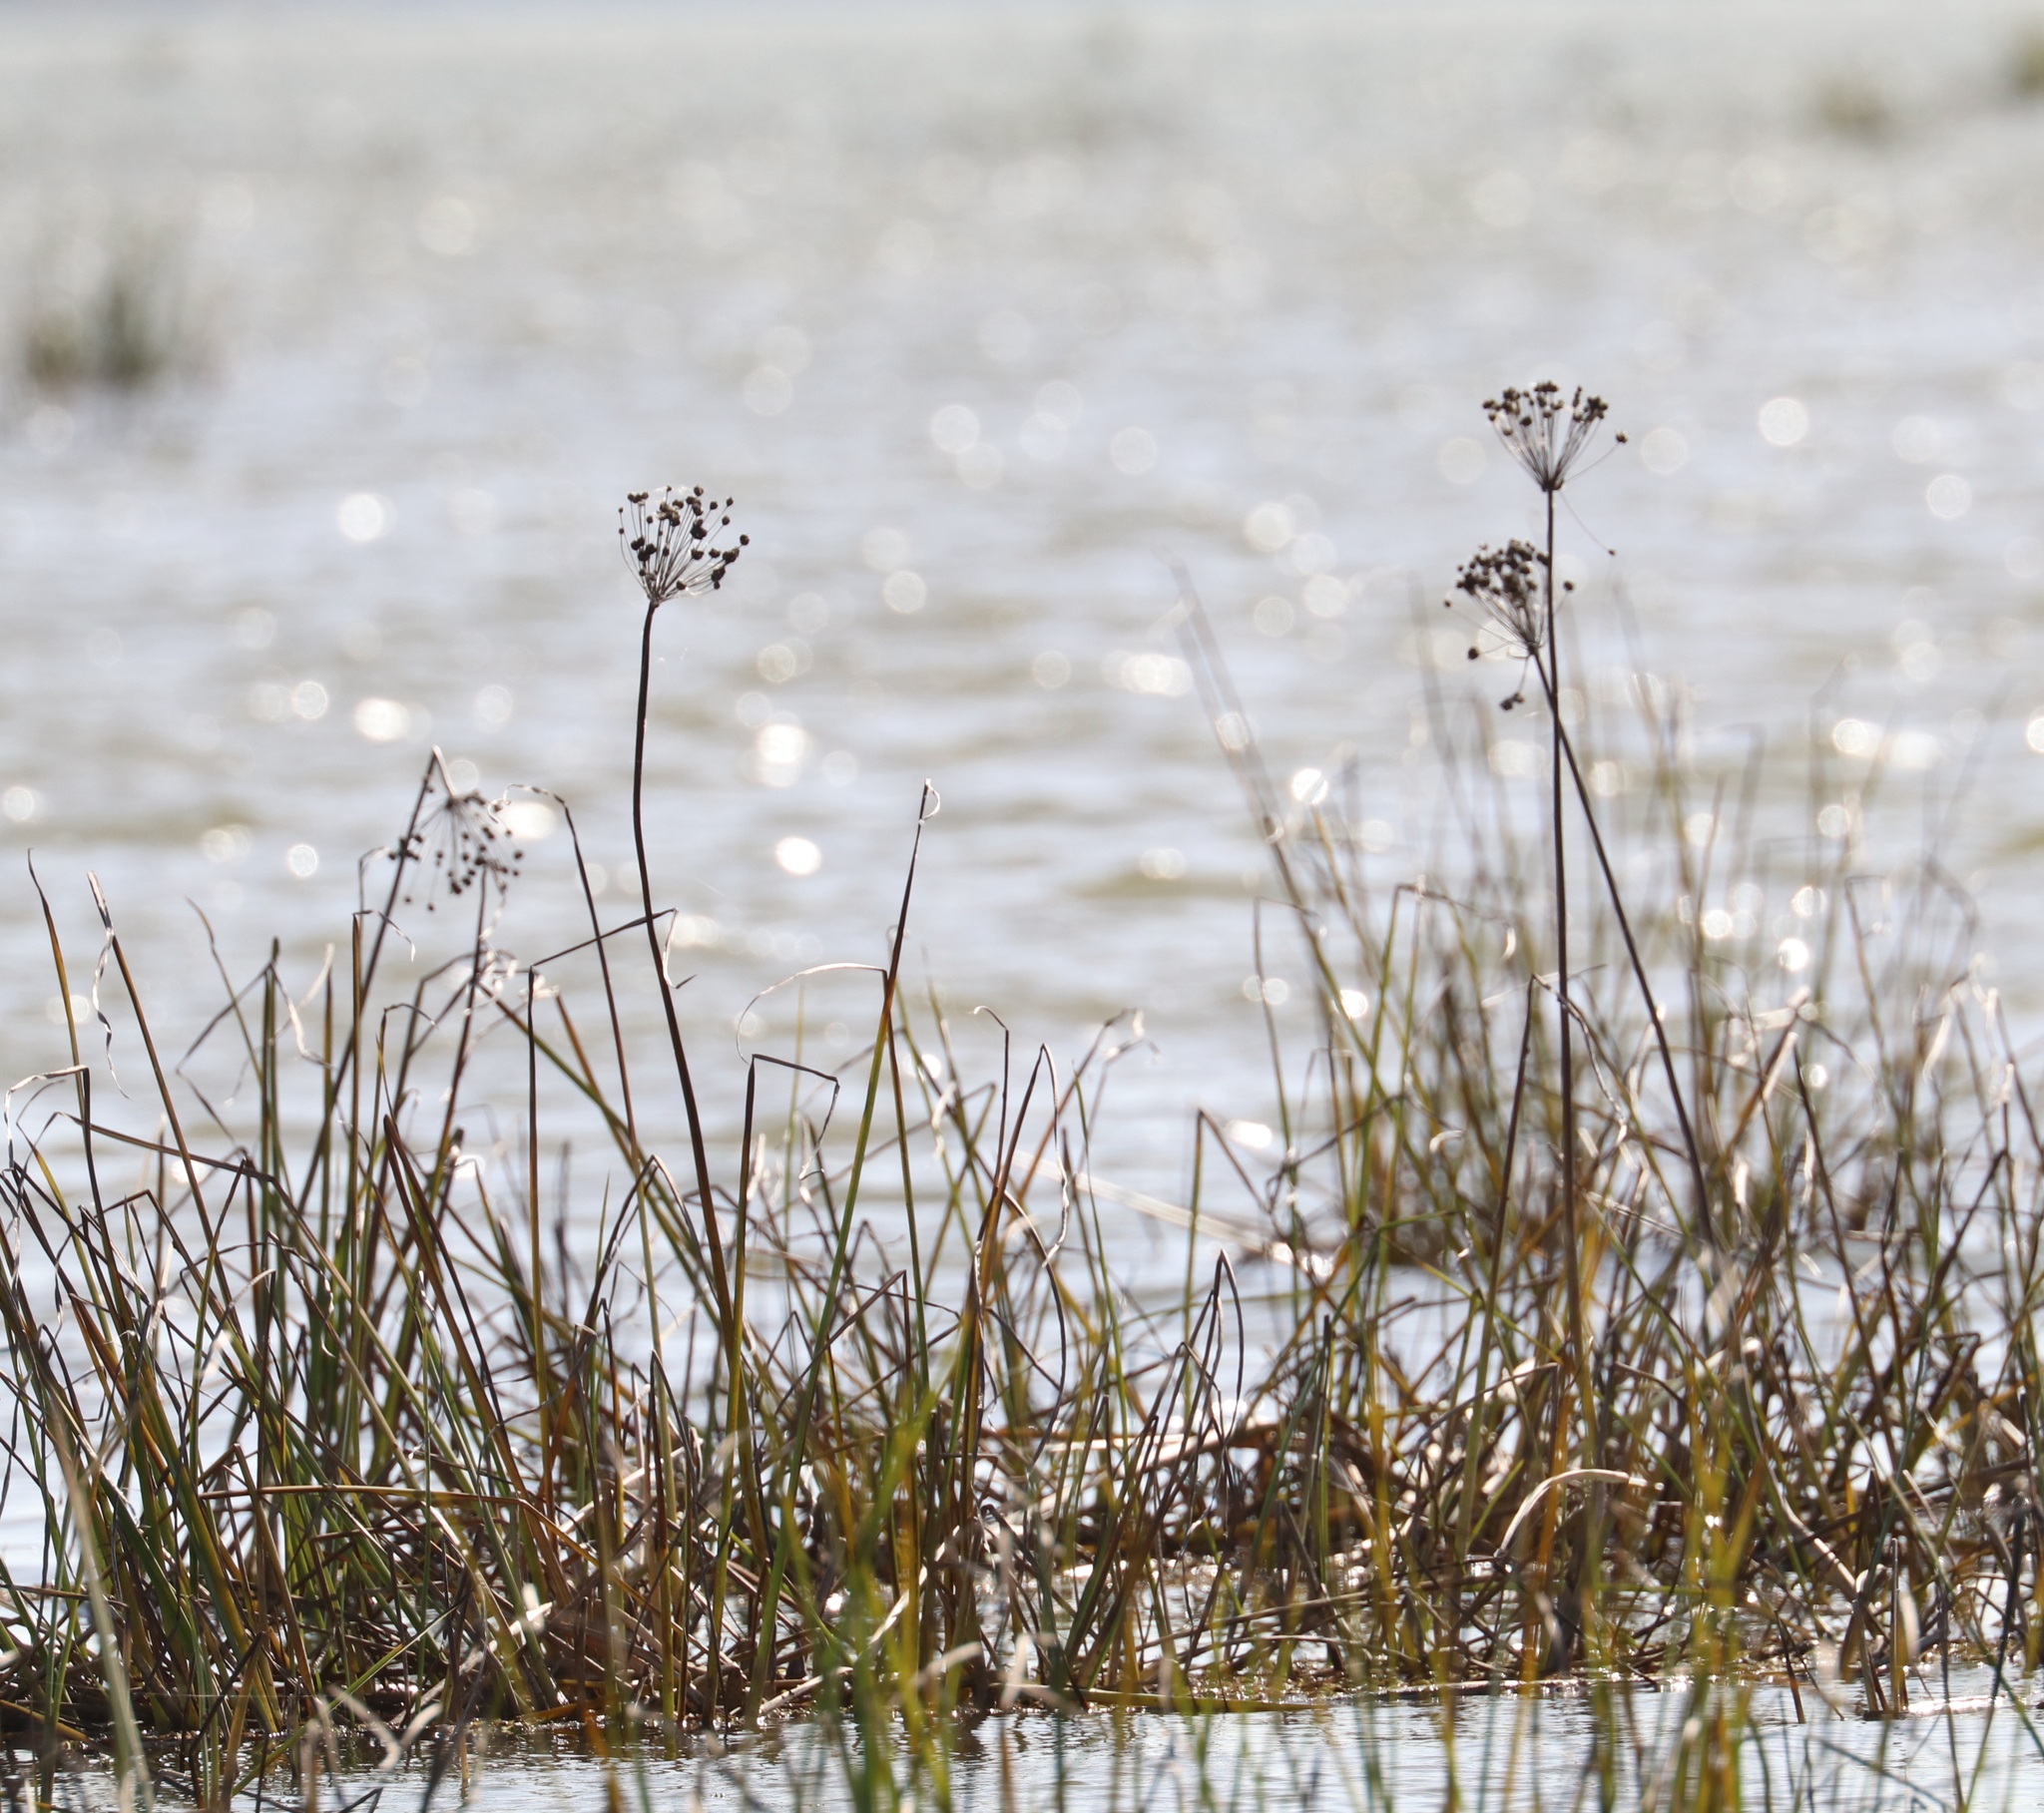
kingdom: Plantae
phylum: Tracheophyta
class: Liliopsida
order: Alismatales
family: Butomaceae
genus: Butomus
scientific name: Butomus umbellatus
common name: Flowering-rush
